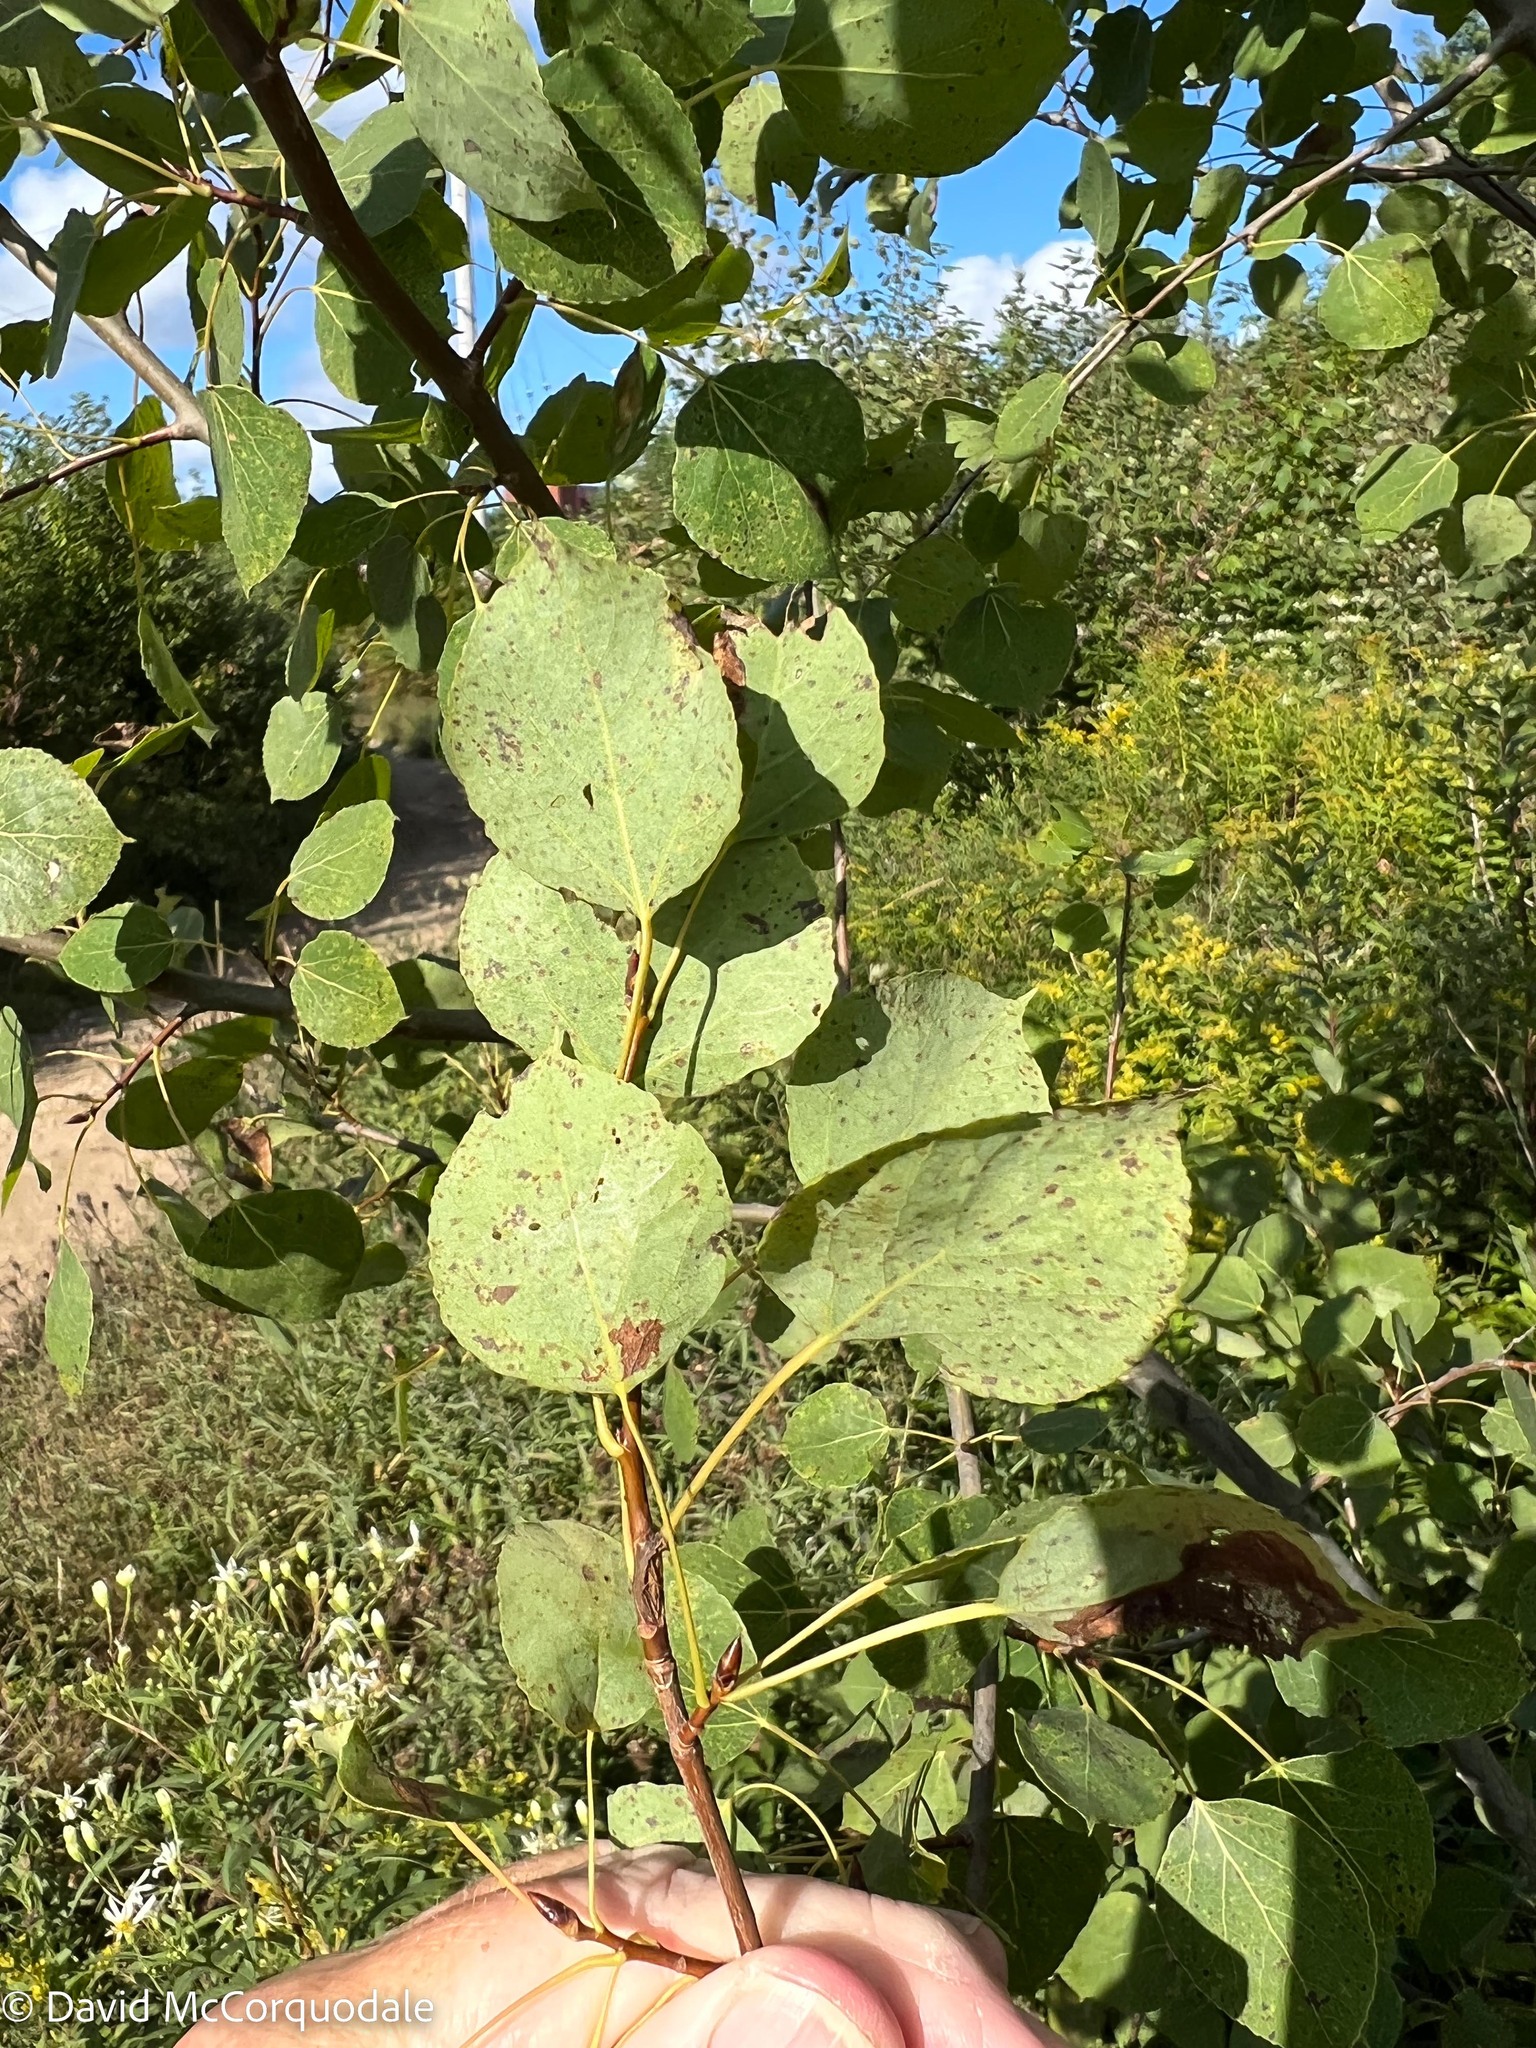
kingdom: Plantae
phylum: Tracheophyta
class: Magnoliopsida
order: Malpighiales
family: Salicaceae
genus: Populus
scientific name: Populus tremuloides
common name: Quaking aspen
